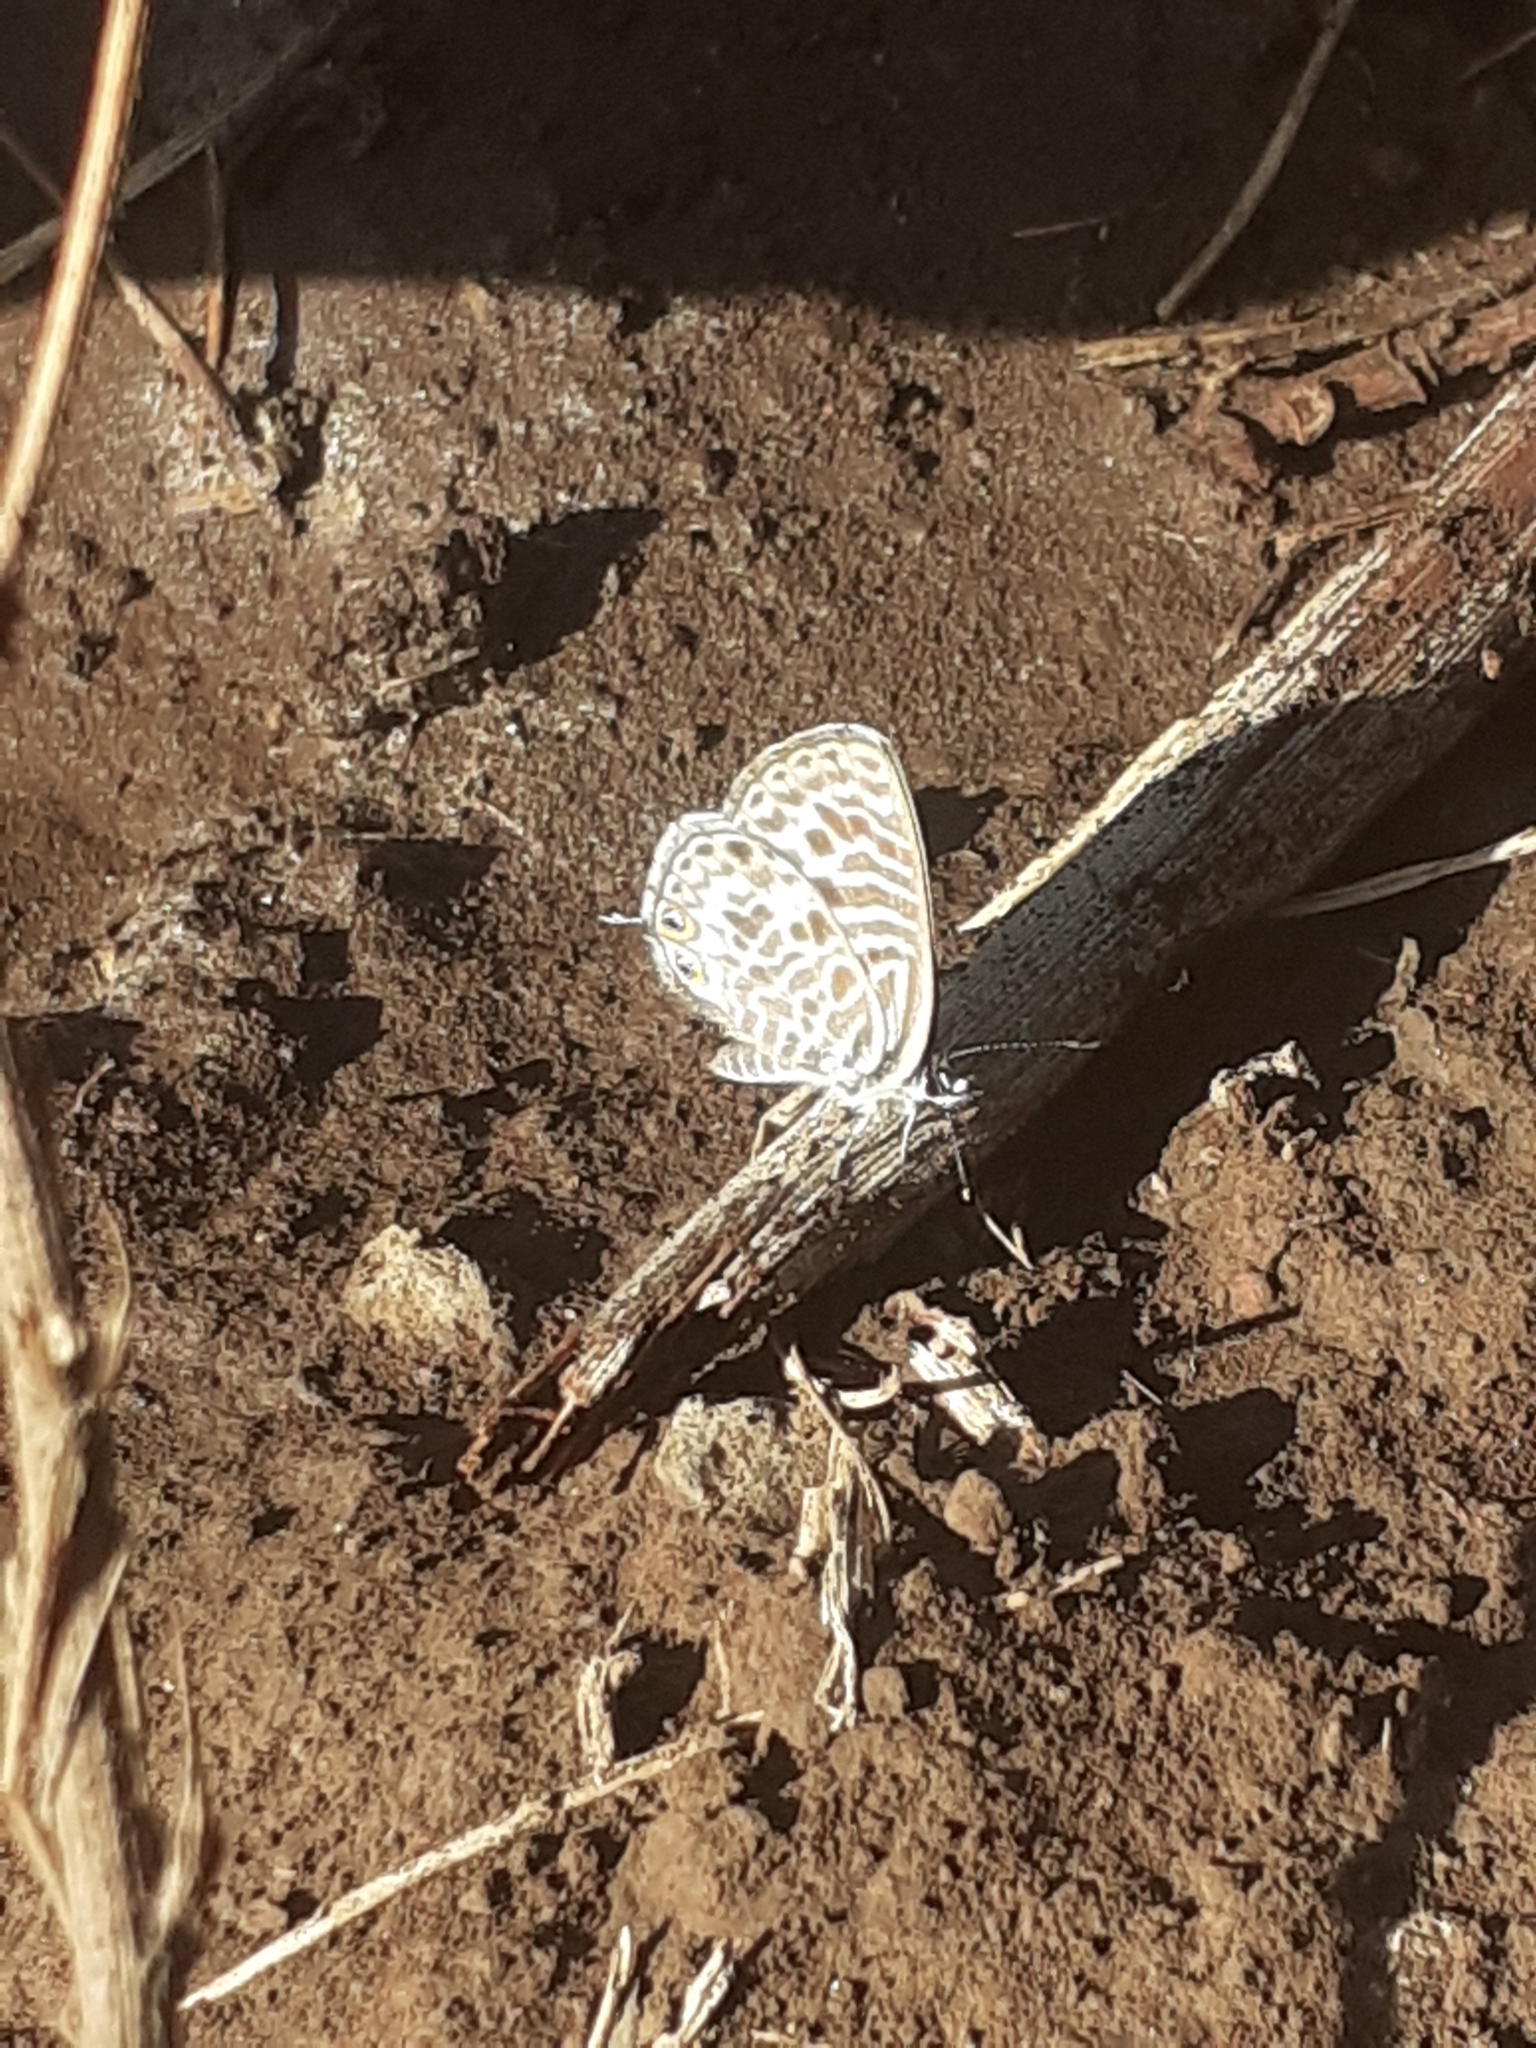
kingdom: Animalia
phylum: Arthropoda
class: Insecta
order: Lepidoptera
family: Lycaenidae
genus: Leptotes
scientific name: Leptotes pirithous
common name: Lang's short-tailed blue
